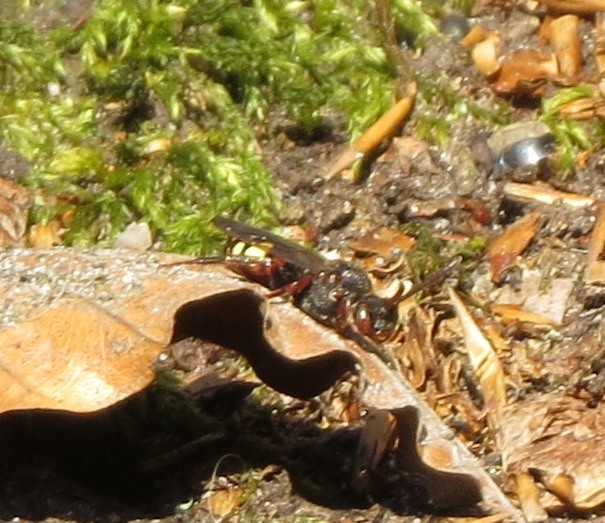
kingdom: Animalia
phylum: Arthropoda
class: Insecta
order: Hymenoptera
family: Apidae
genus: Nomada
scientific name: Nomada leucophthalma
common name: Early nomad bee
